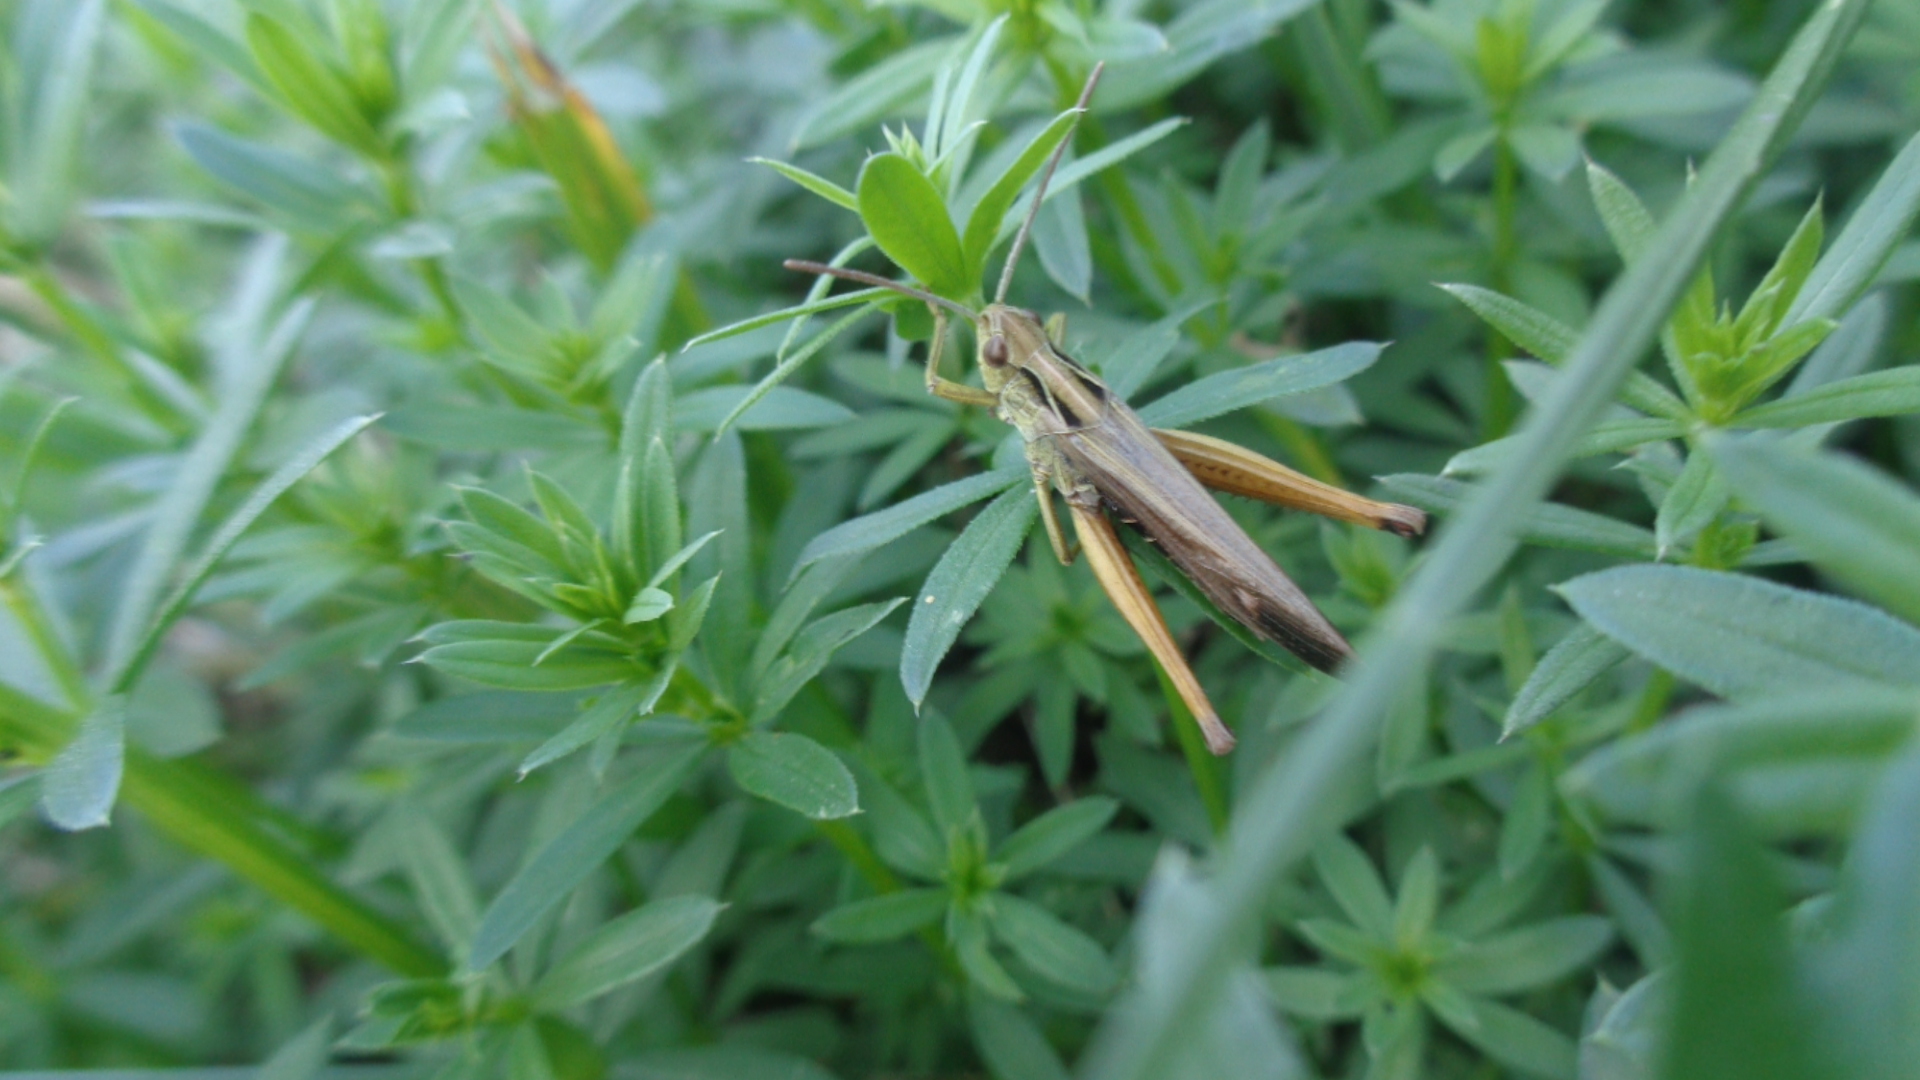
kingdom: Animalia
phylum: Arthropoda
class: Insecta
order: Orthoptera
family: Acrididae
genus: Omocestus
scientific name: Omocestus viridulus
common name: Common green grasshopper
